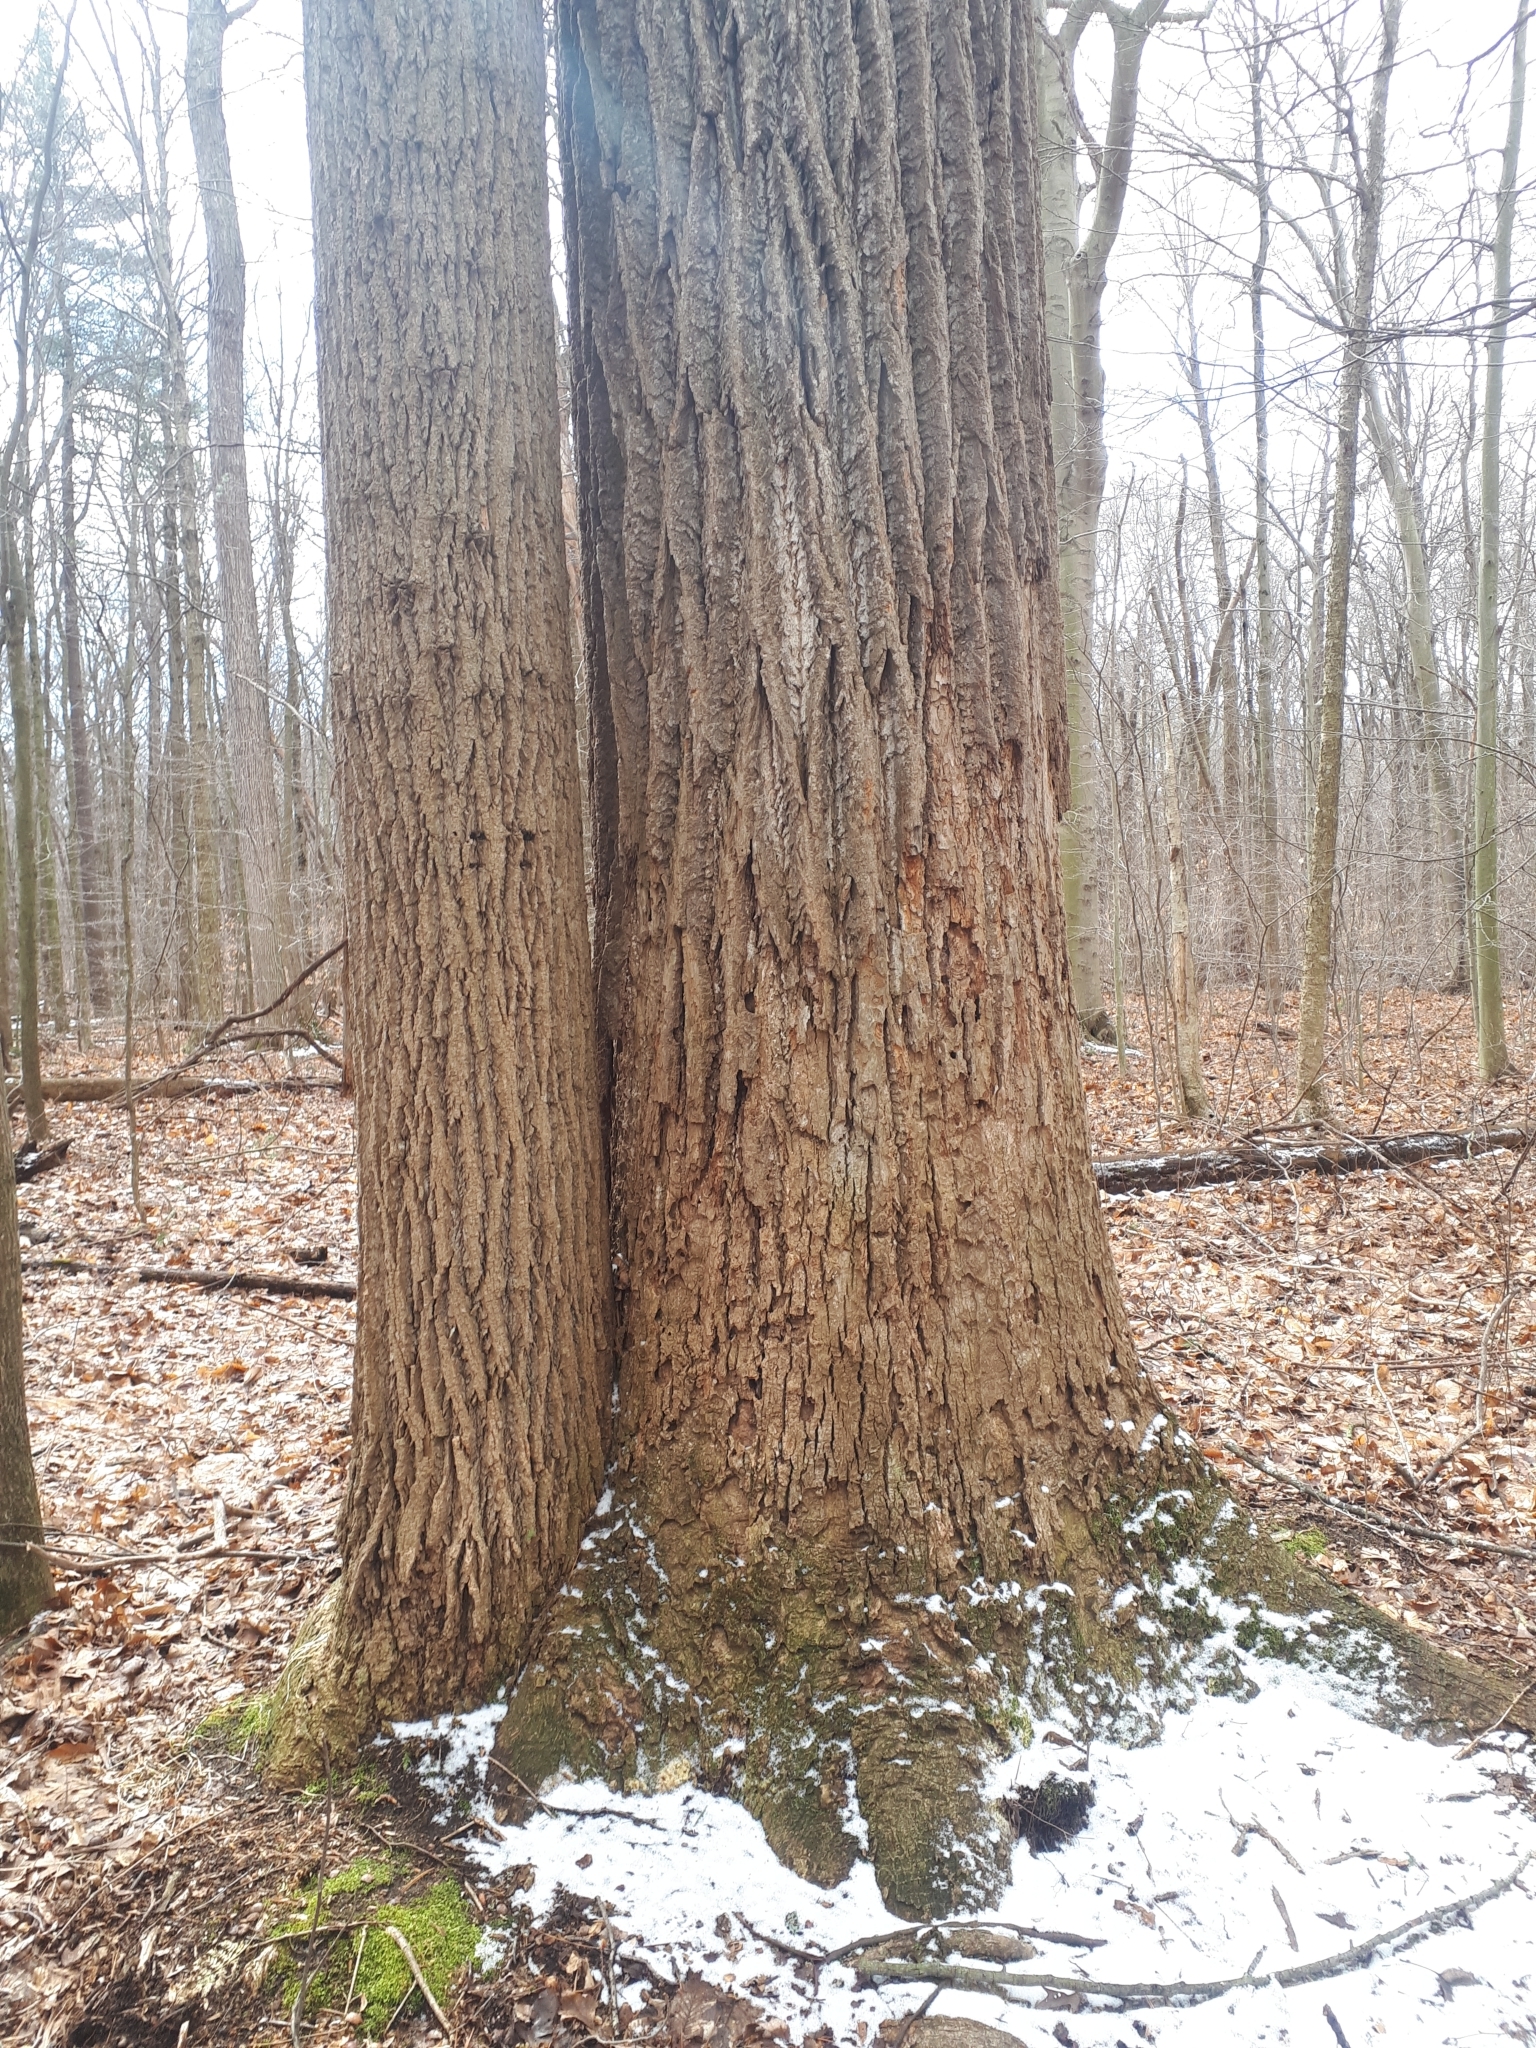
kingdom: Plantae
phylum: Tracheophyta
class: Magnoliopsida
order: Magnoliales
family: Magnoliaceae
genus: Liriodendron
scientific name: Liriodendron tulipifera
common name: Tulip tree
